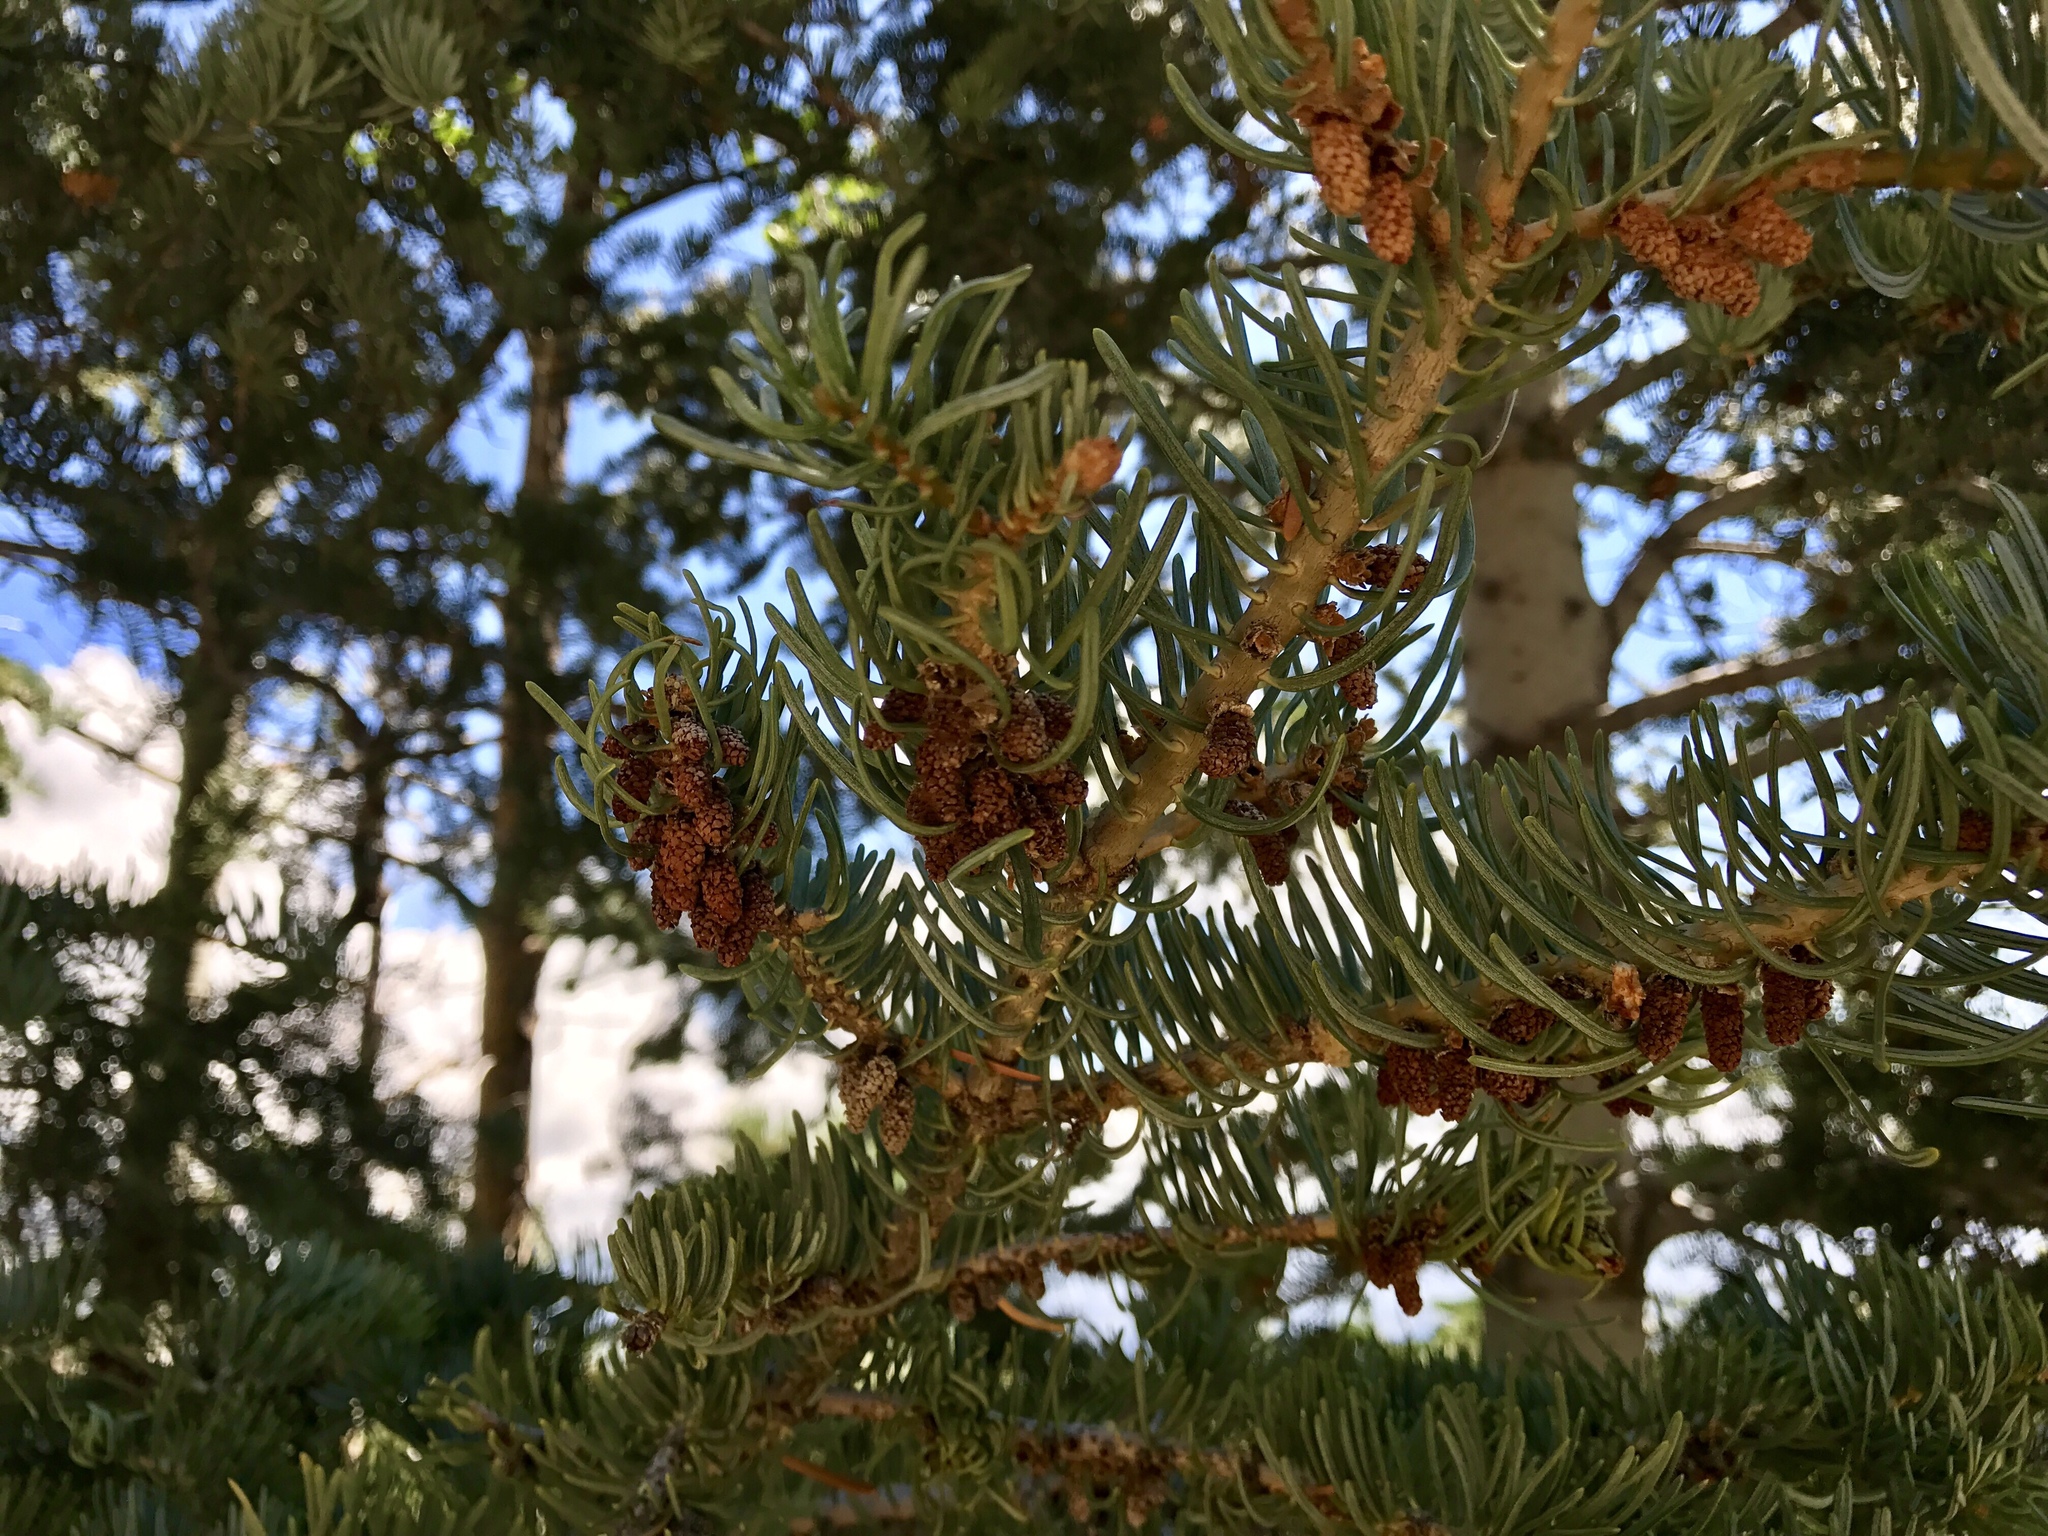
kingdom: Plantae
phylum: Tracheophyta
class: Pinopsida
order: Pinales
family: Pinaceae
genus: Abies
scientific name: Abies concolor
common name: Colorado fir
